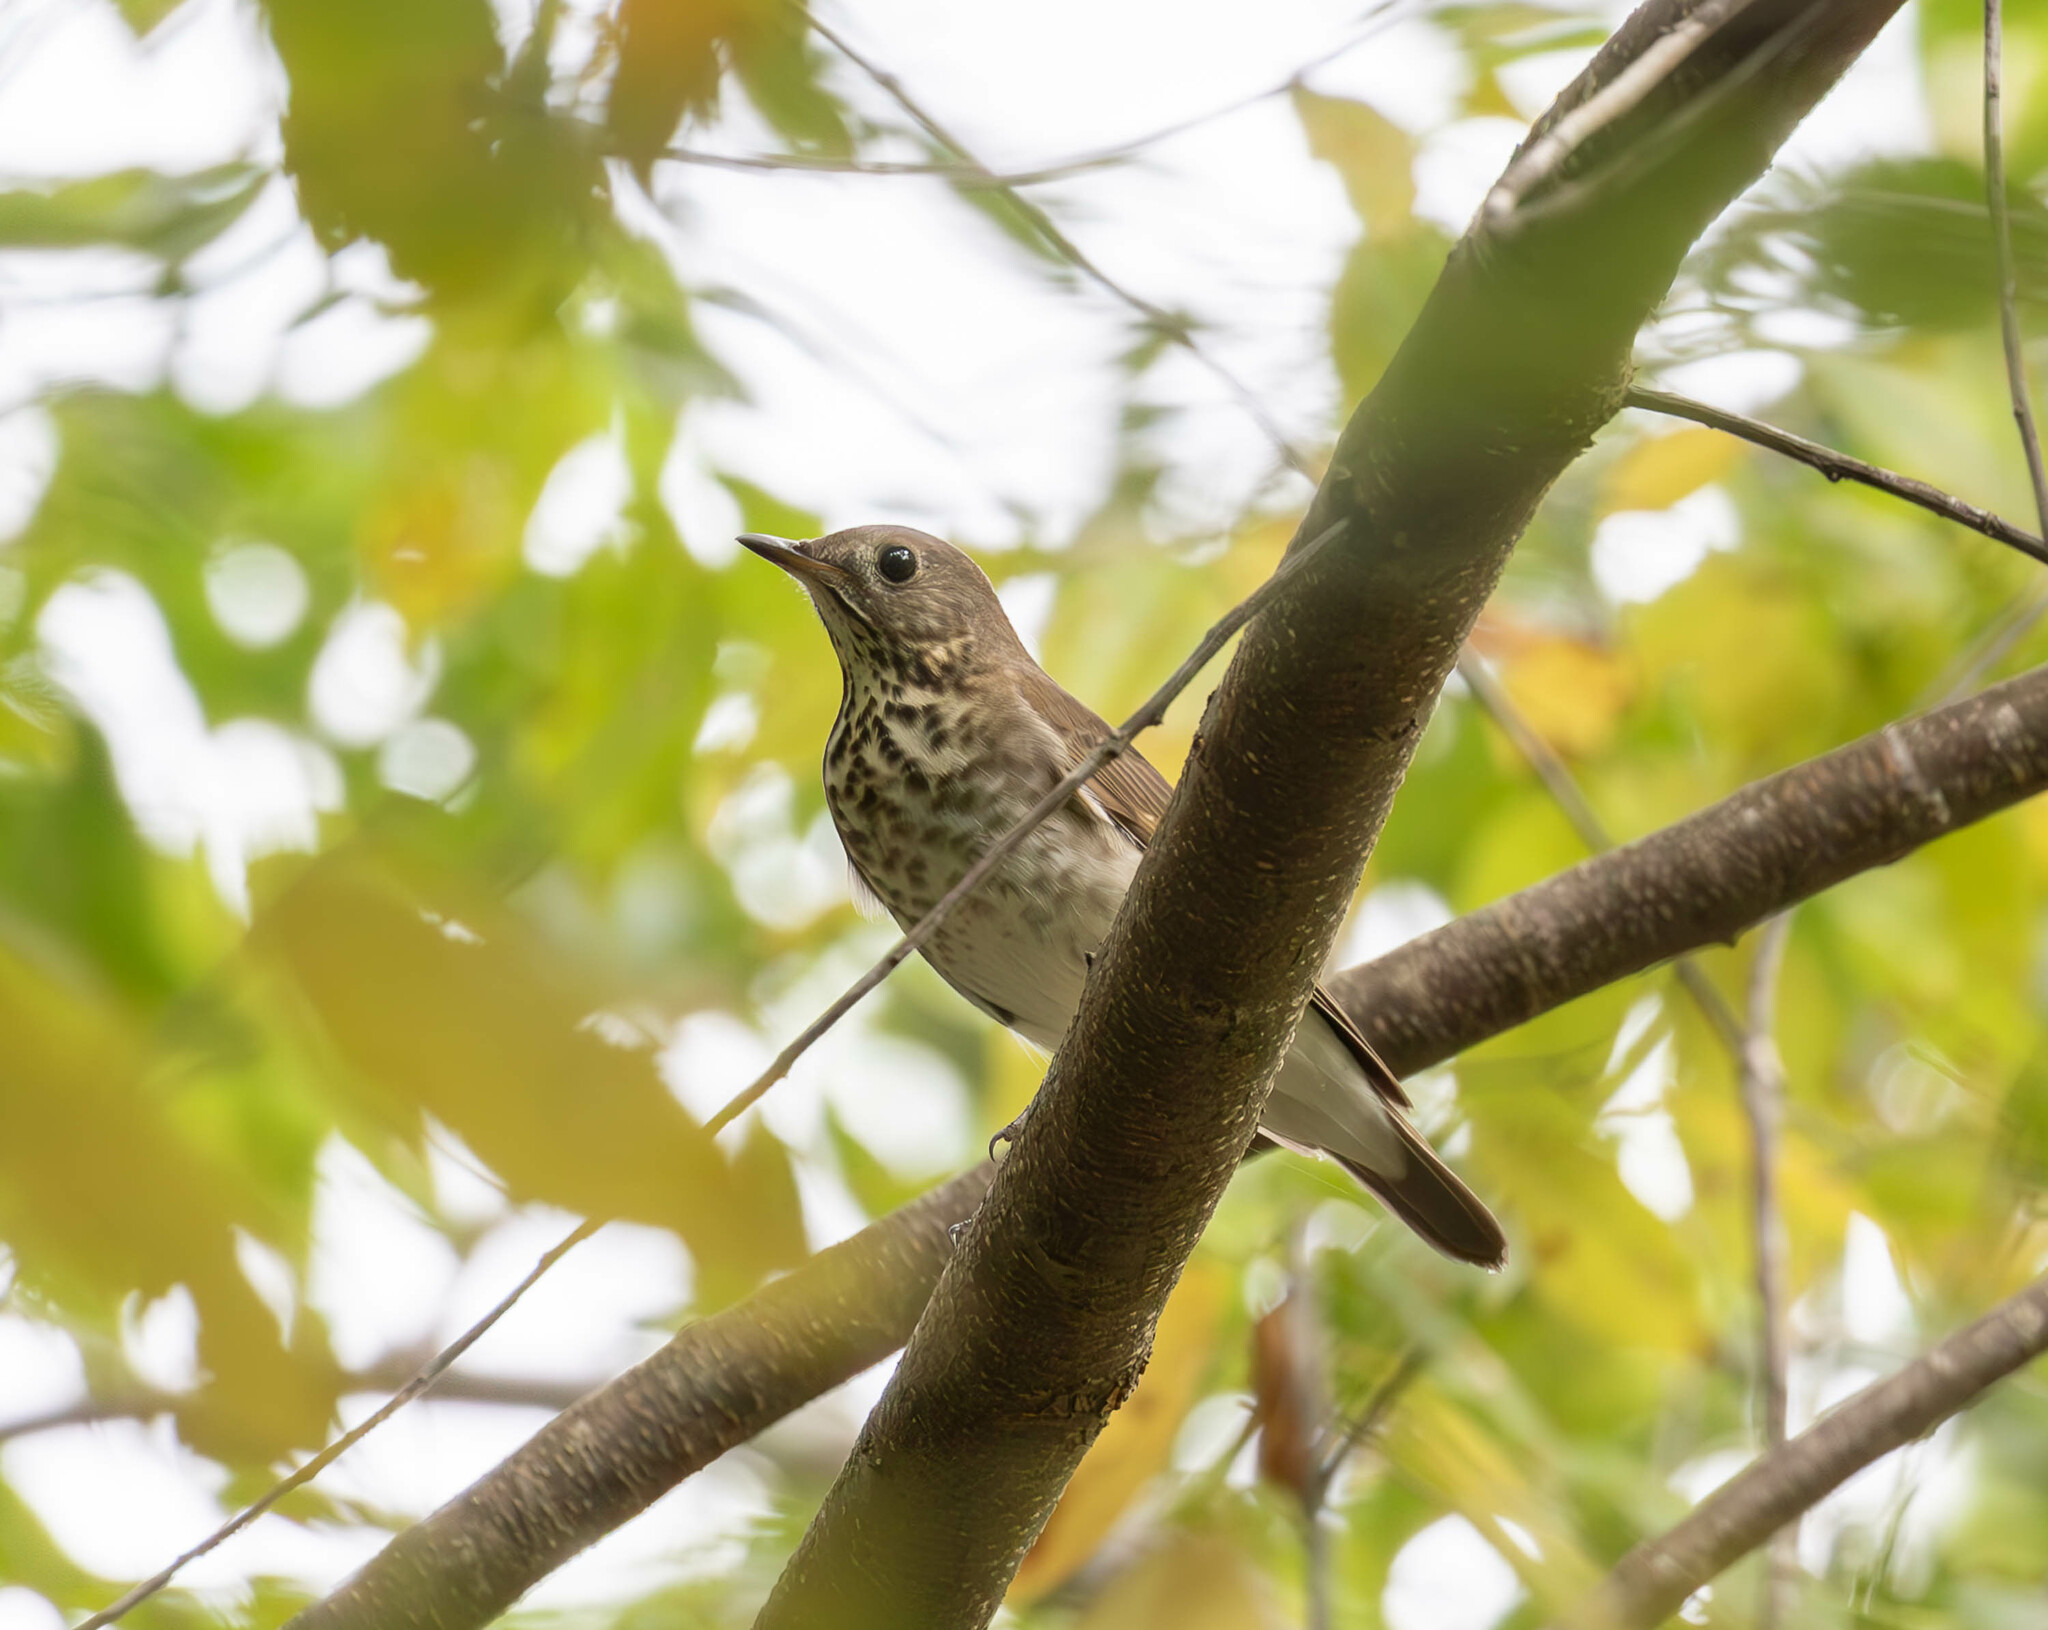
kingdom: Animalia
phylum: Chordata
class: Aves
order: Passeriformes
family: Turdidae
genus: Catharus
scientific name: Catharus minimus
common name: Grey-cheeked thrush
